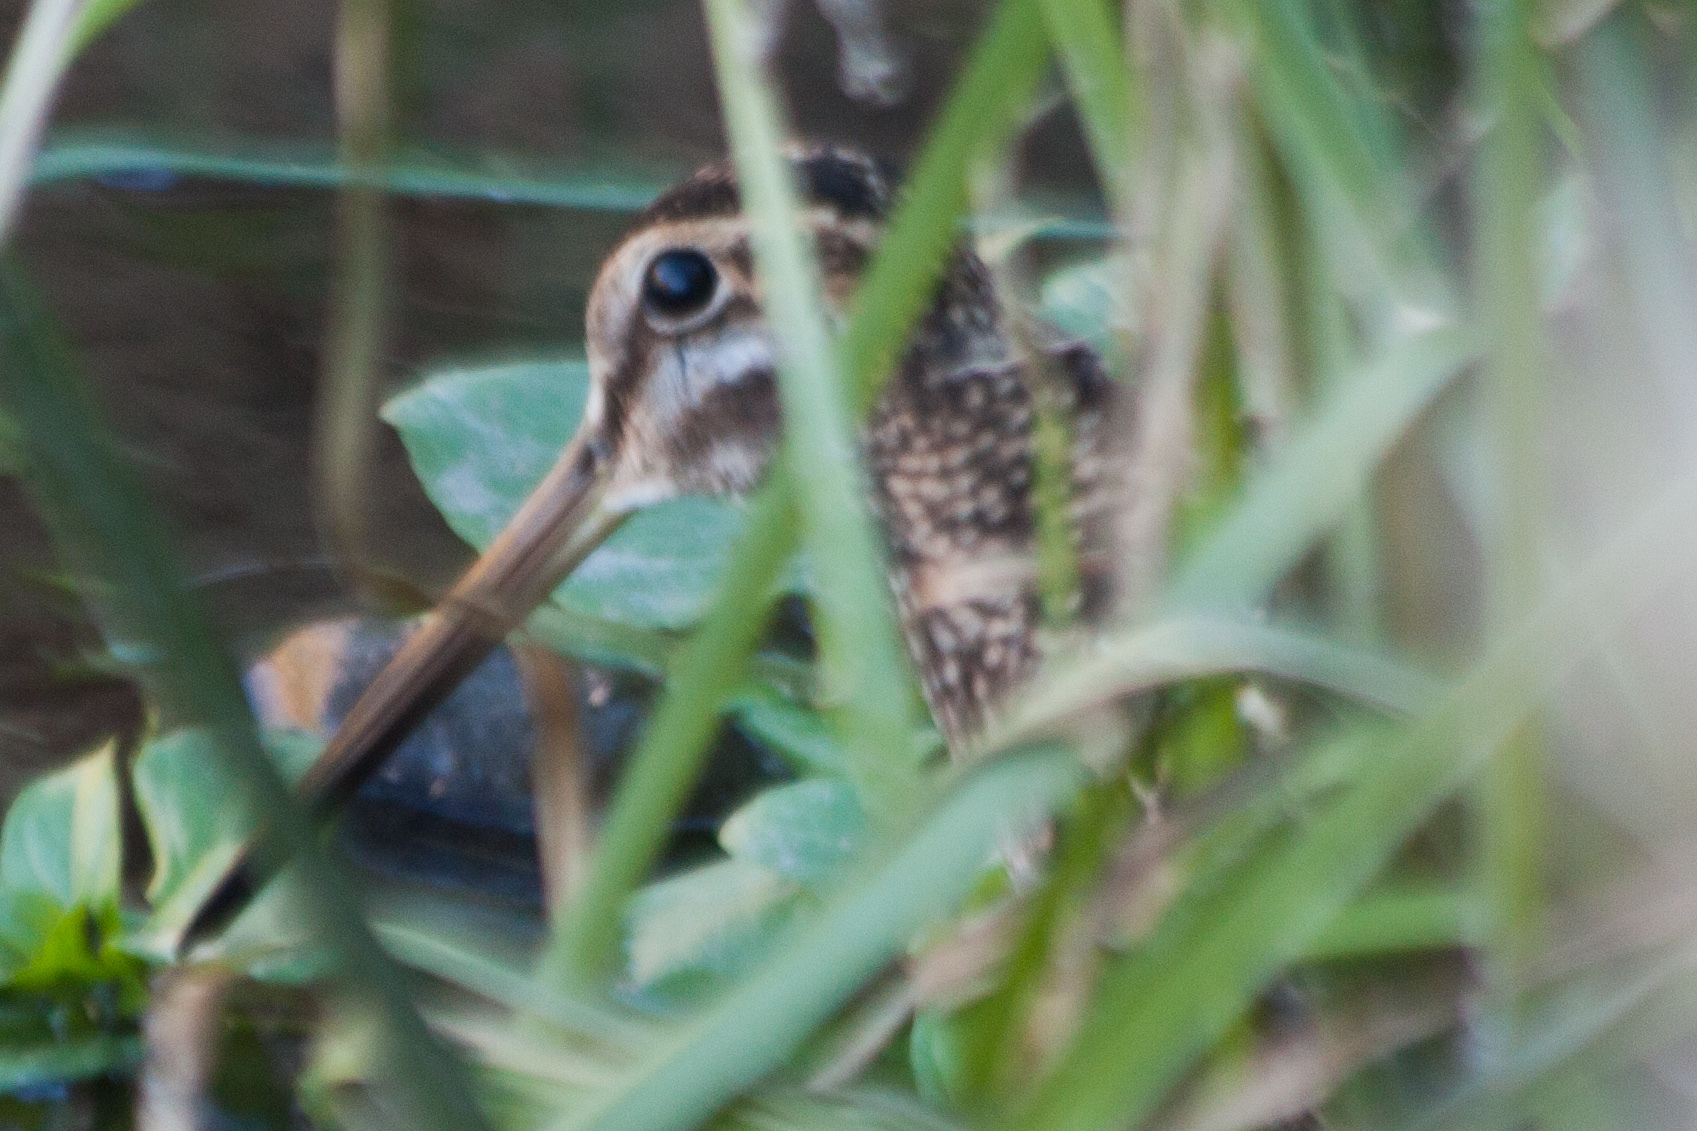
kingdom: Animalia
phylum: Chordata
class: Aves
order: Charadriiformes
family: Scolopacidae
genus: Gallinago
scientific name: Gallinago delicata
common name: Wilson's snipe
